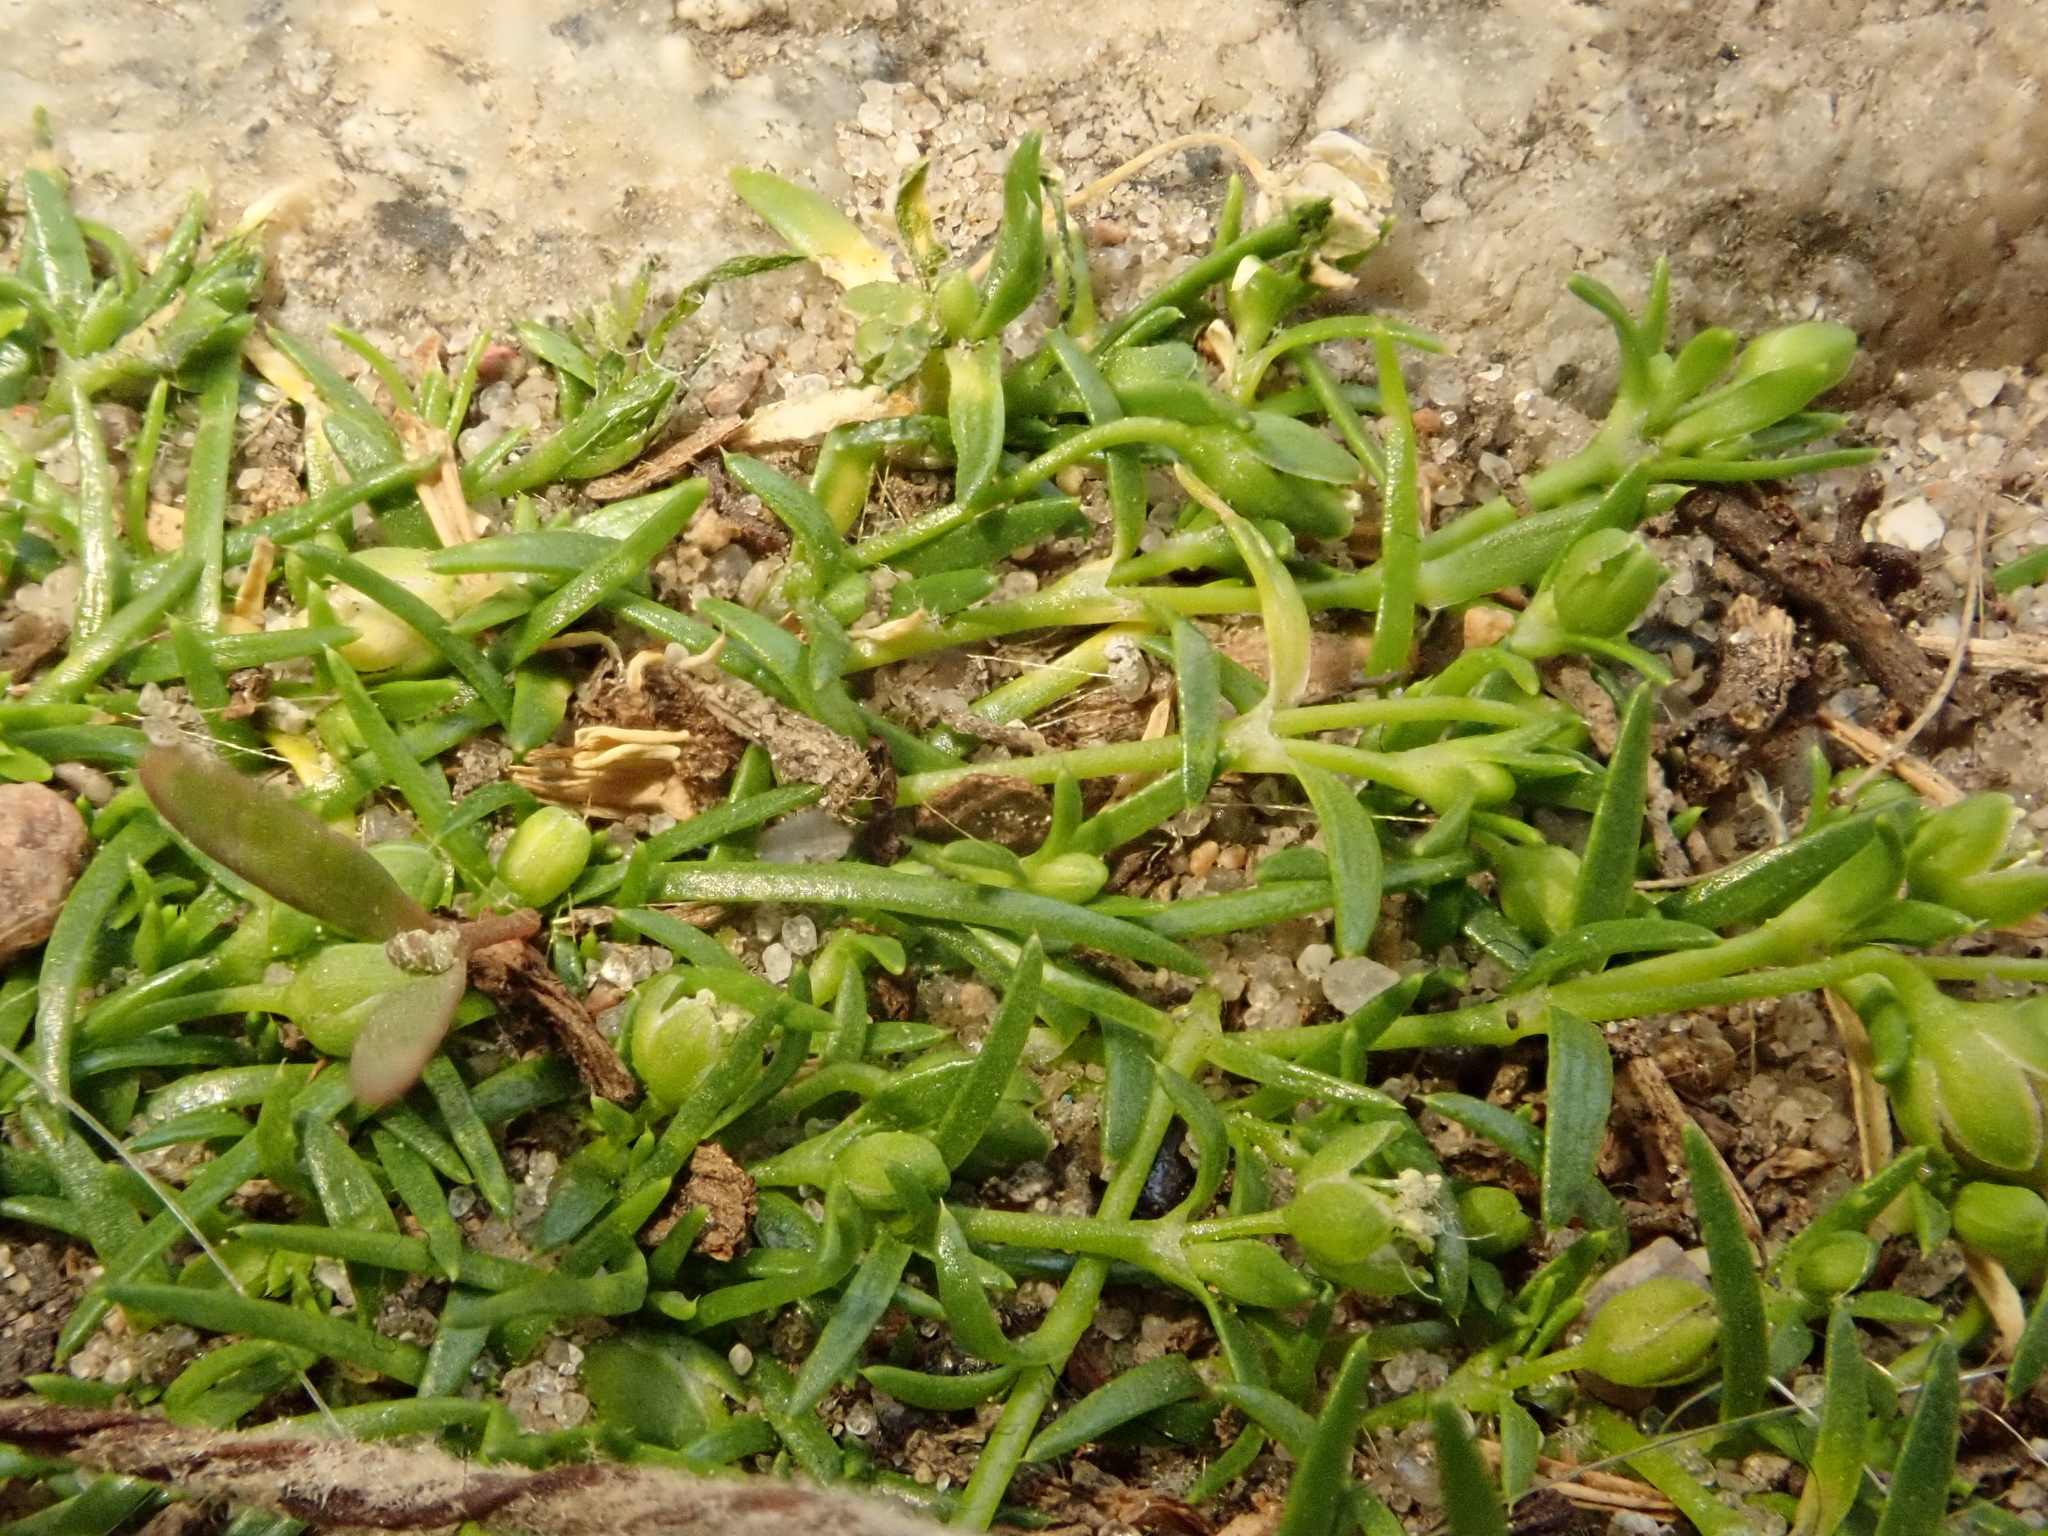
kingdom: Plantae
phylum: Tracheophyta
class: Magnoliopsida
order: Caryophyllales
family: Caryophyllaceae
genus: Sagina
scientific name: Sagina procumbens
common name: Procumbent pearlwort
